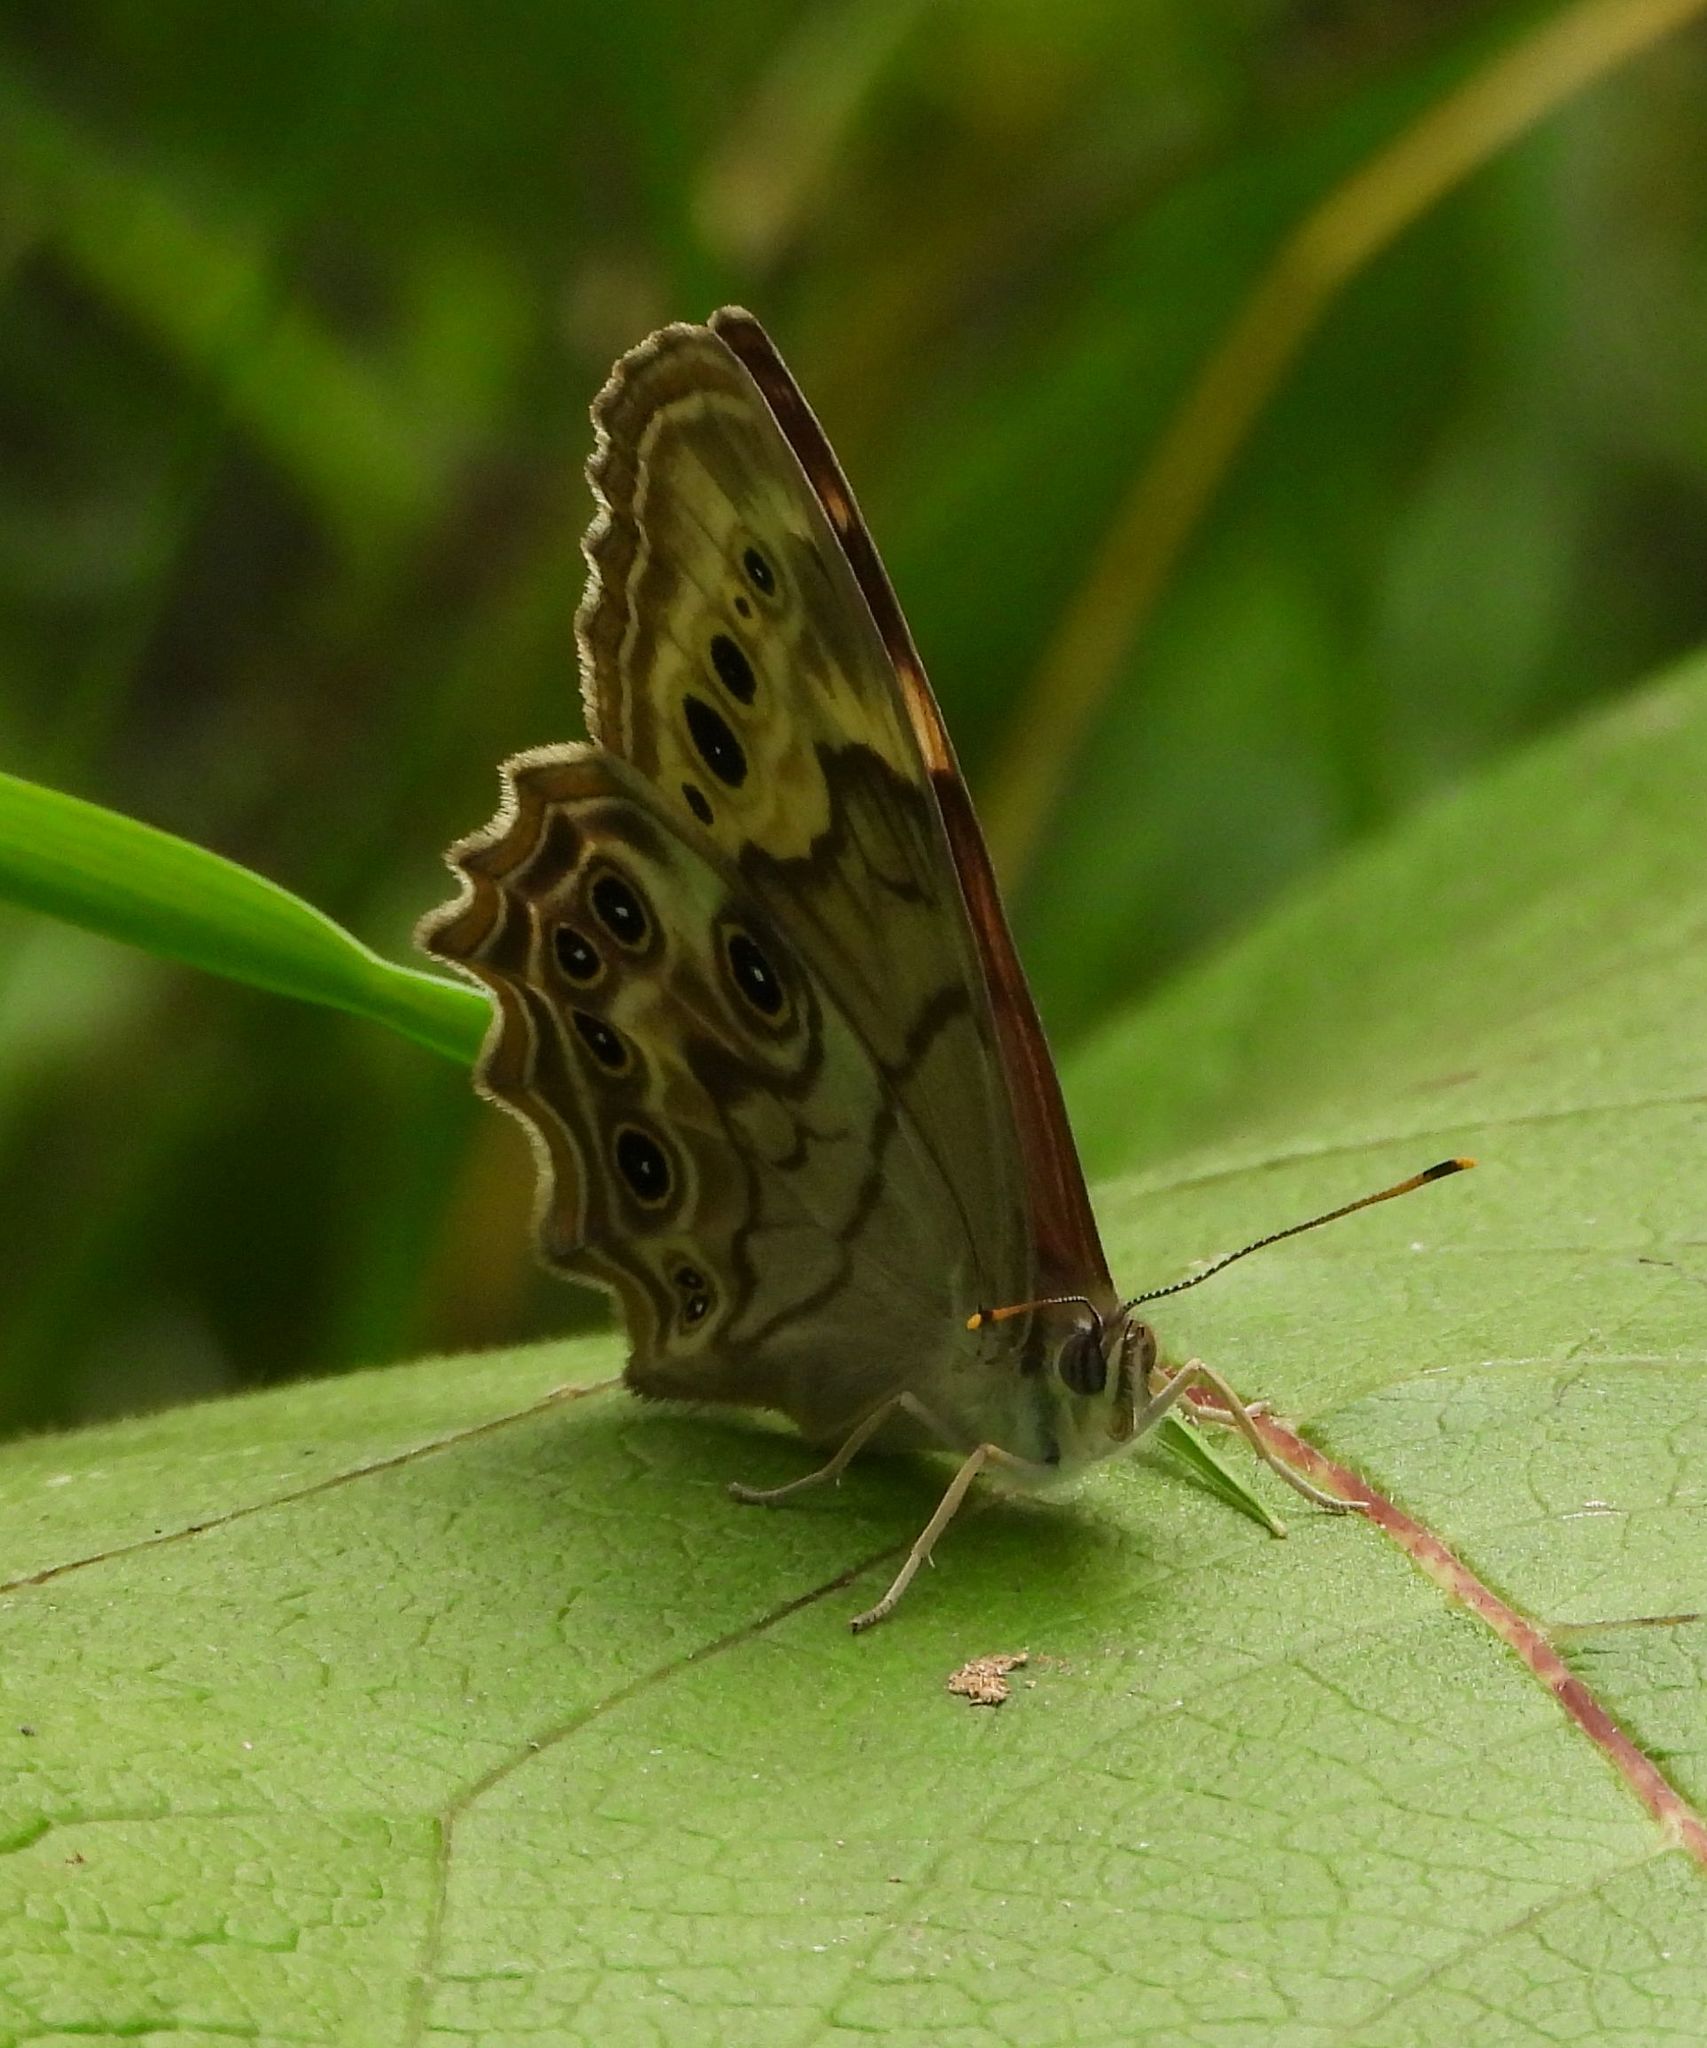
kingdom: Animalia
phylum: Arthropoda
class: Insecta
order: Lepidoptera
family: Nymphalidae
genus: Lethe
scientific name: Lethe anthedon
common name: Northern pearly-eye
